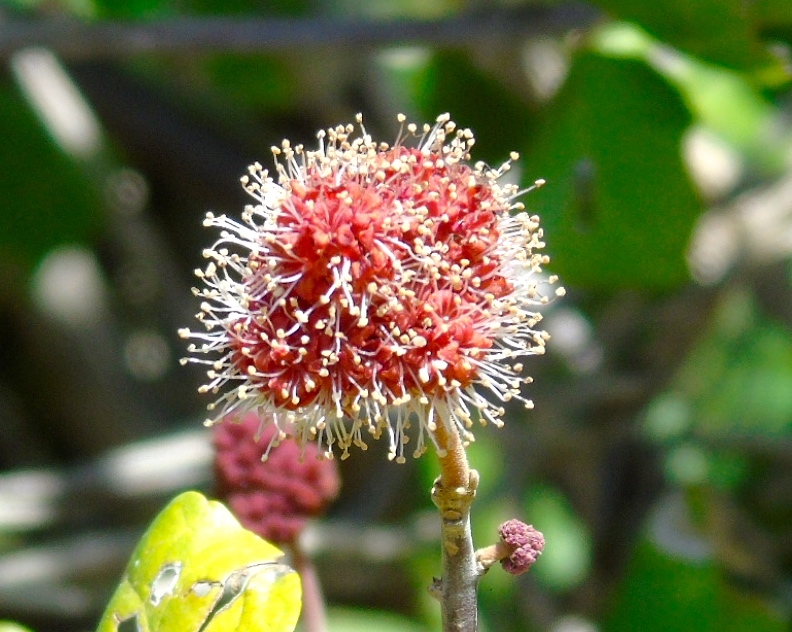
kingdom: Plantae
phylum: Tracheophyta
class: Magnoliopsida
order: Caryophyllales
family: Nyctaginaceae
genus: Pisonia
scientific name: Pisonia capitata
